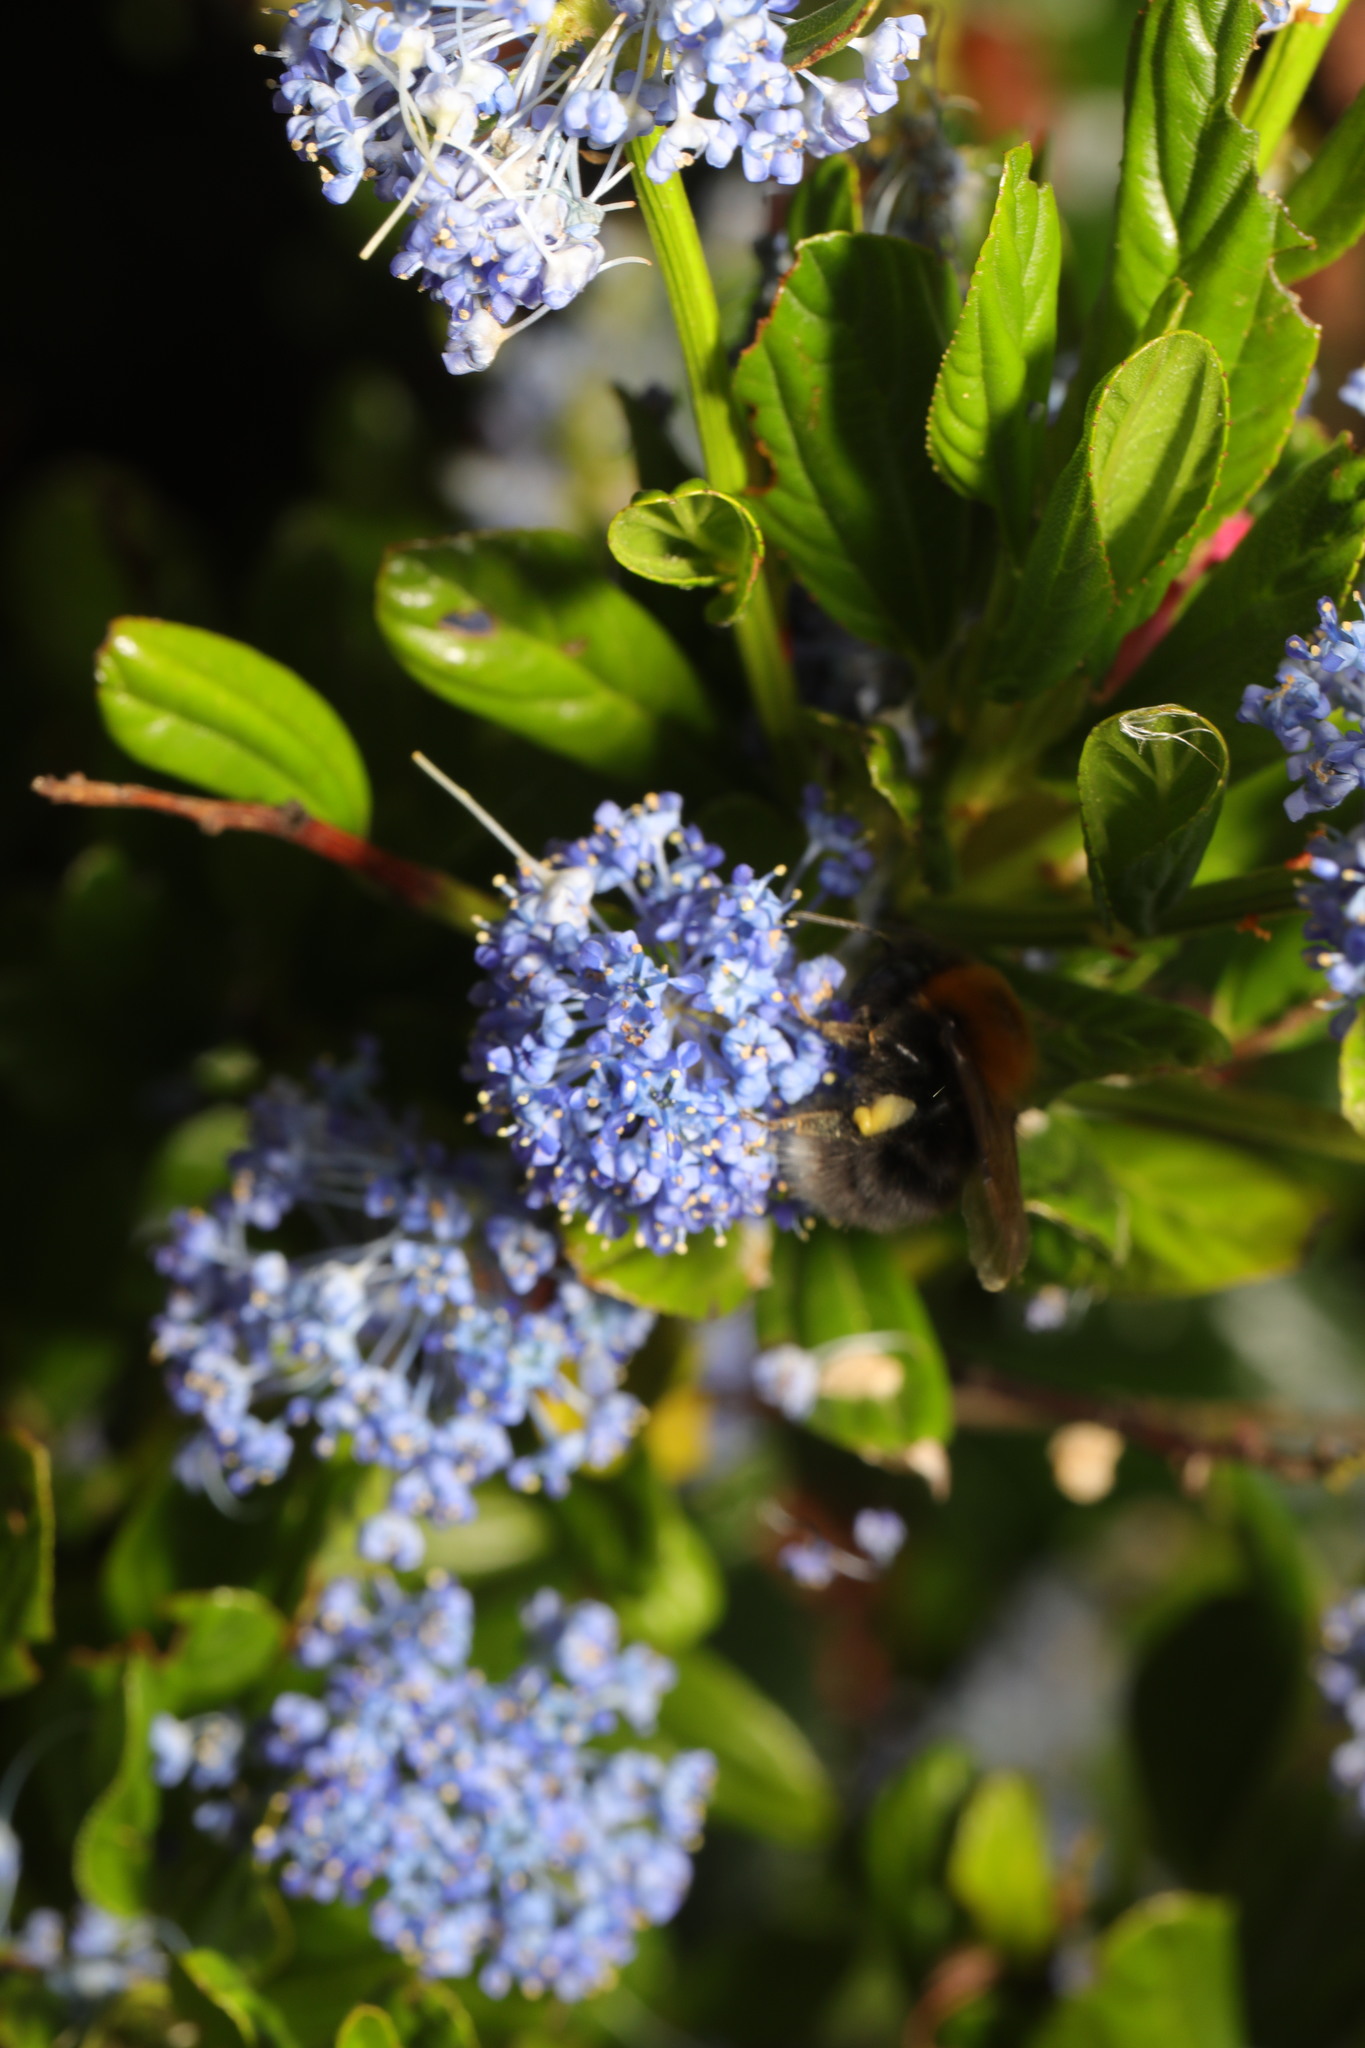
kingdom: Animalia
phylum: Arthropoda
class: Insecta
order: Hymenoptera
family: Apidae
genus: Bombus
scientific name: Bombus hypnorum
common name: New garden bumblebee
